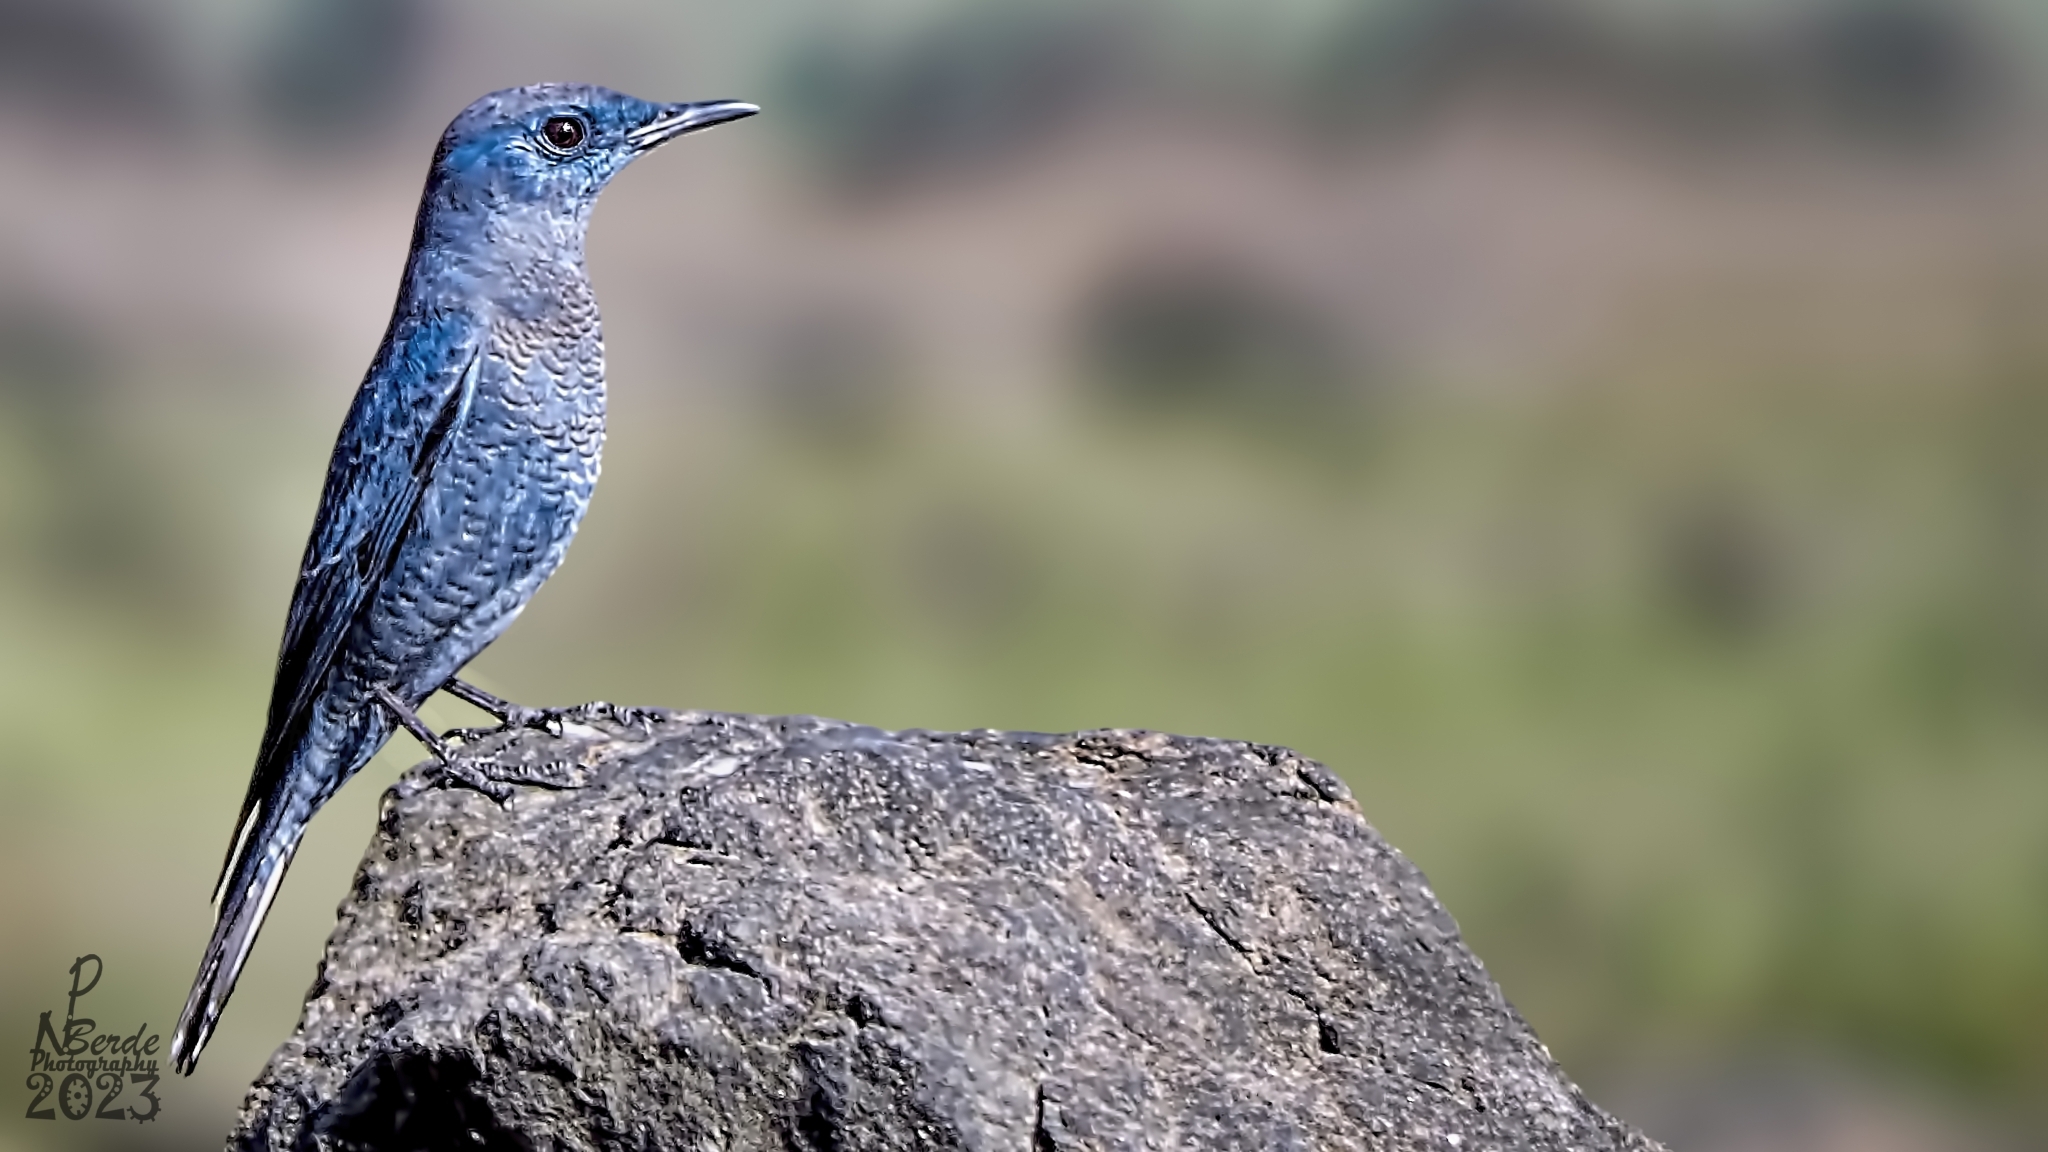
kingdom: Animalia
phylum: Chordata
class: Aves
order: Passeriformes
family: Muscicapidae
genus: Monticola
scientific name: Monticola solitarius
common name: Blue rock thrush
